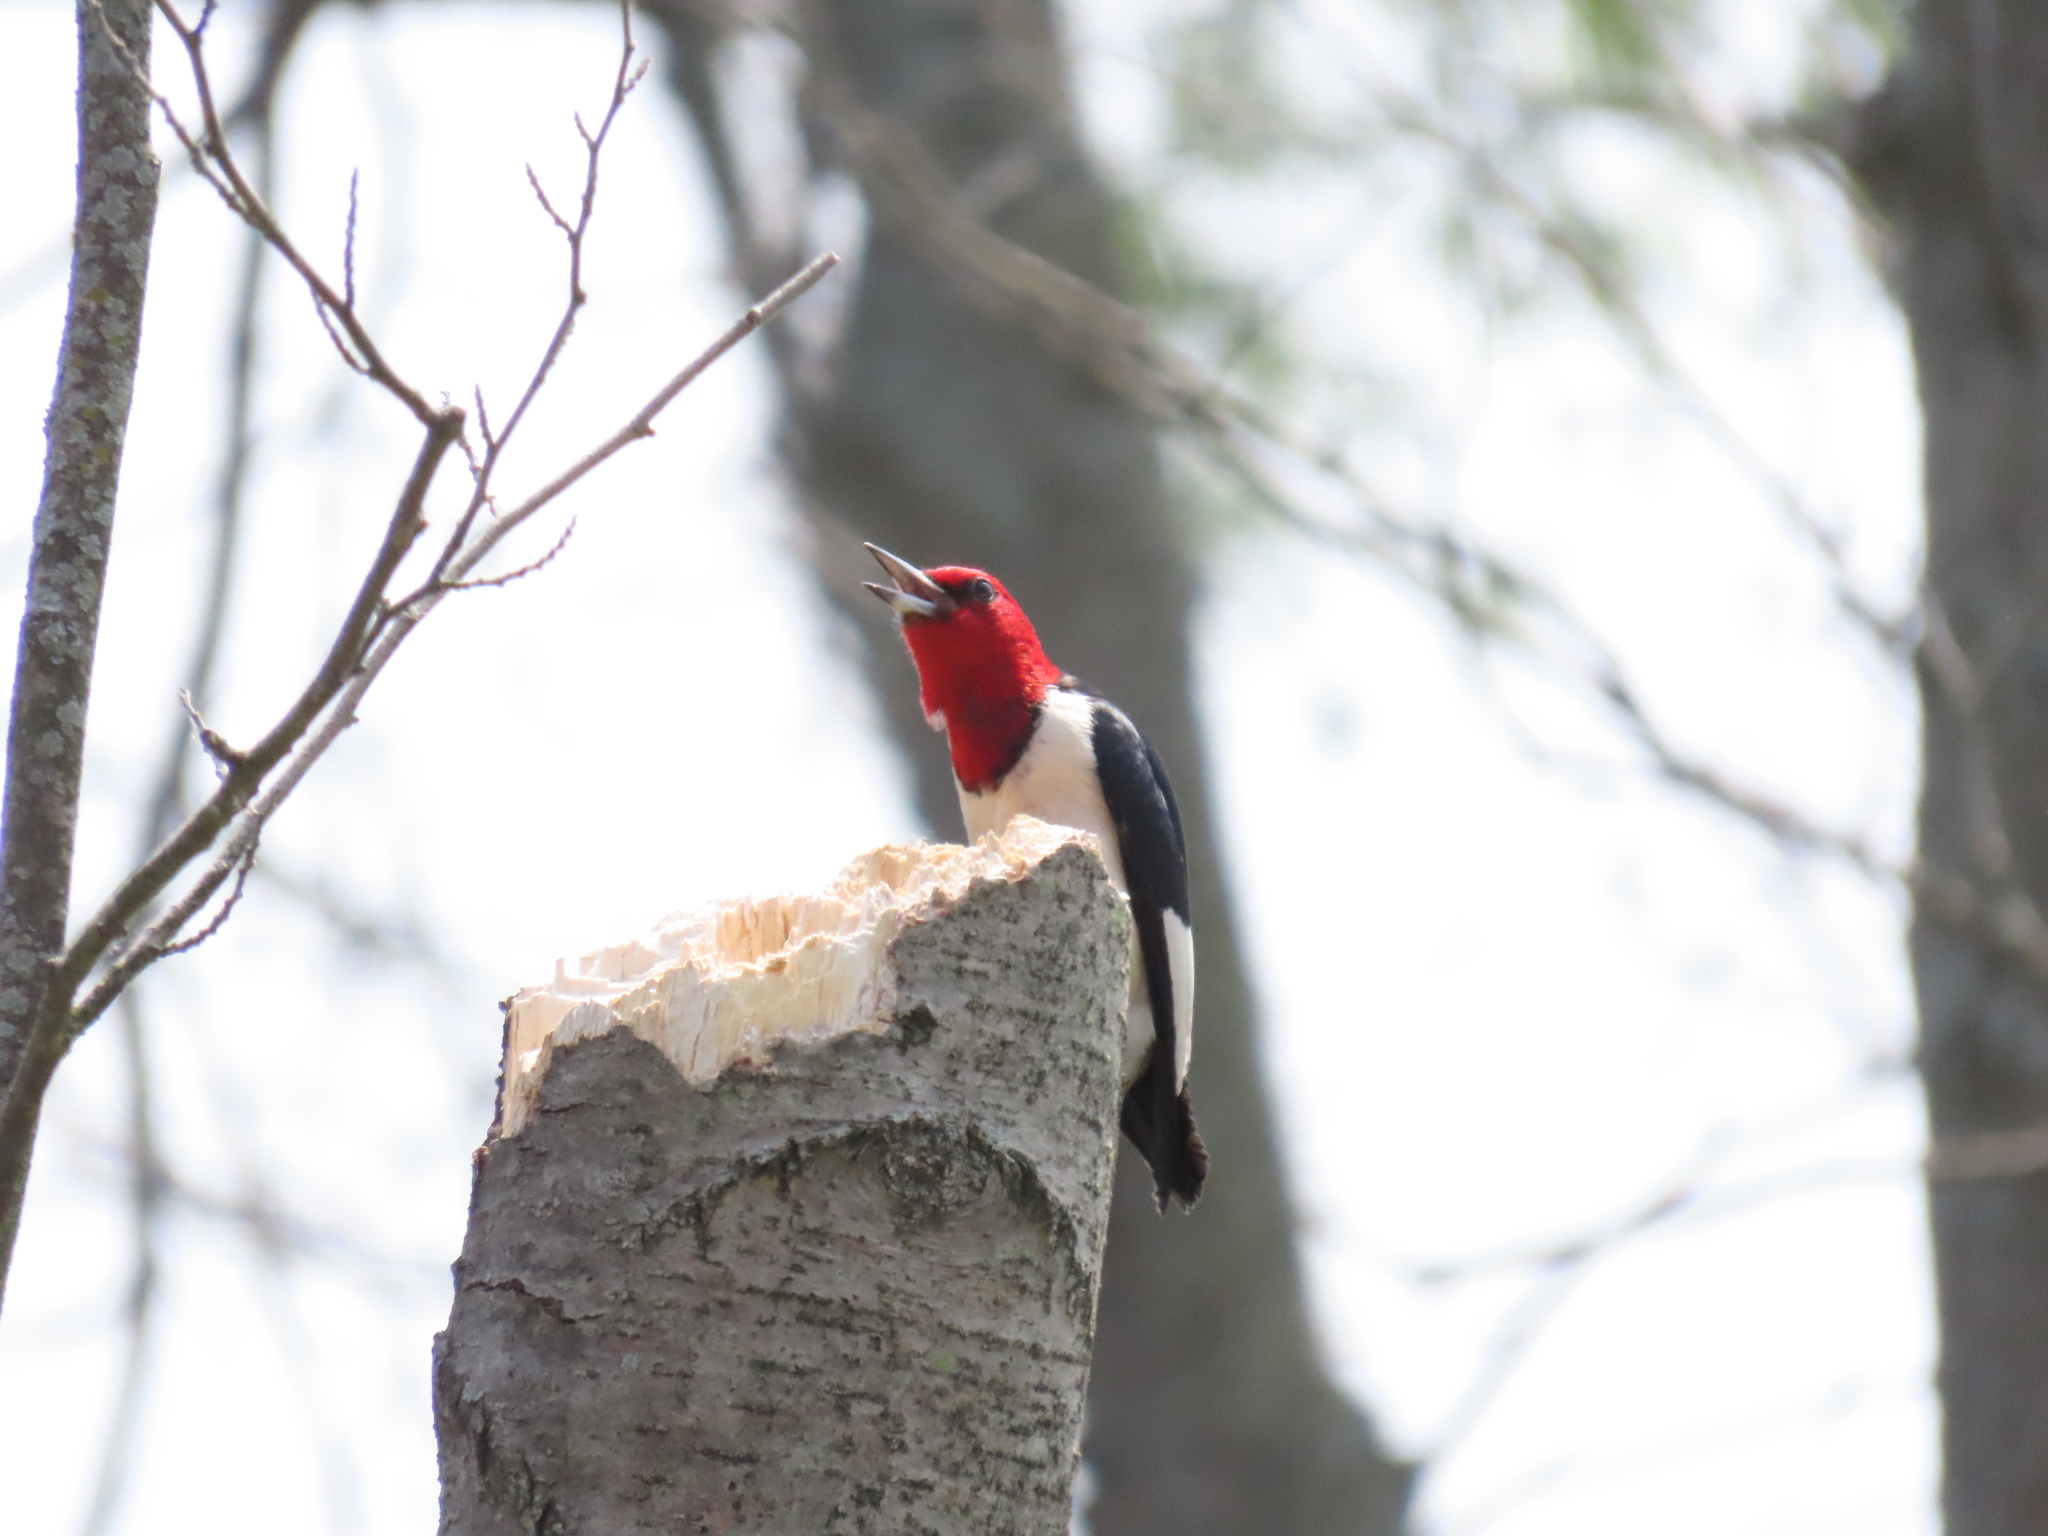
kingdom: Animalia
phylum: Chordata
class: Aves
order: Piciformes
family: Picidae
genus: Melanerpes
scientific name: Melanerpes erythrocephalus
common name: Red-headed woodpecker
